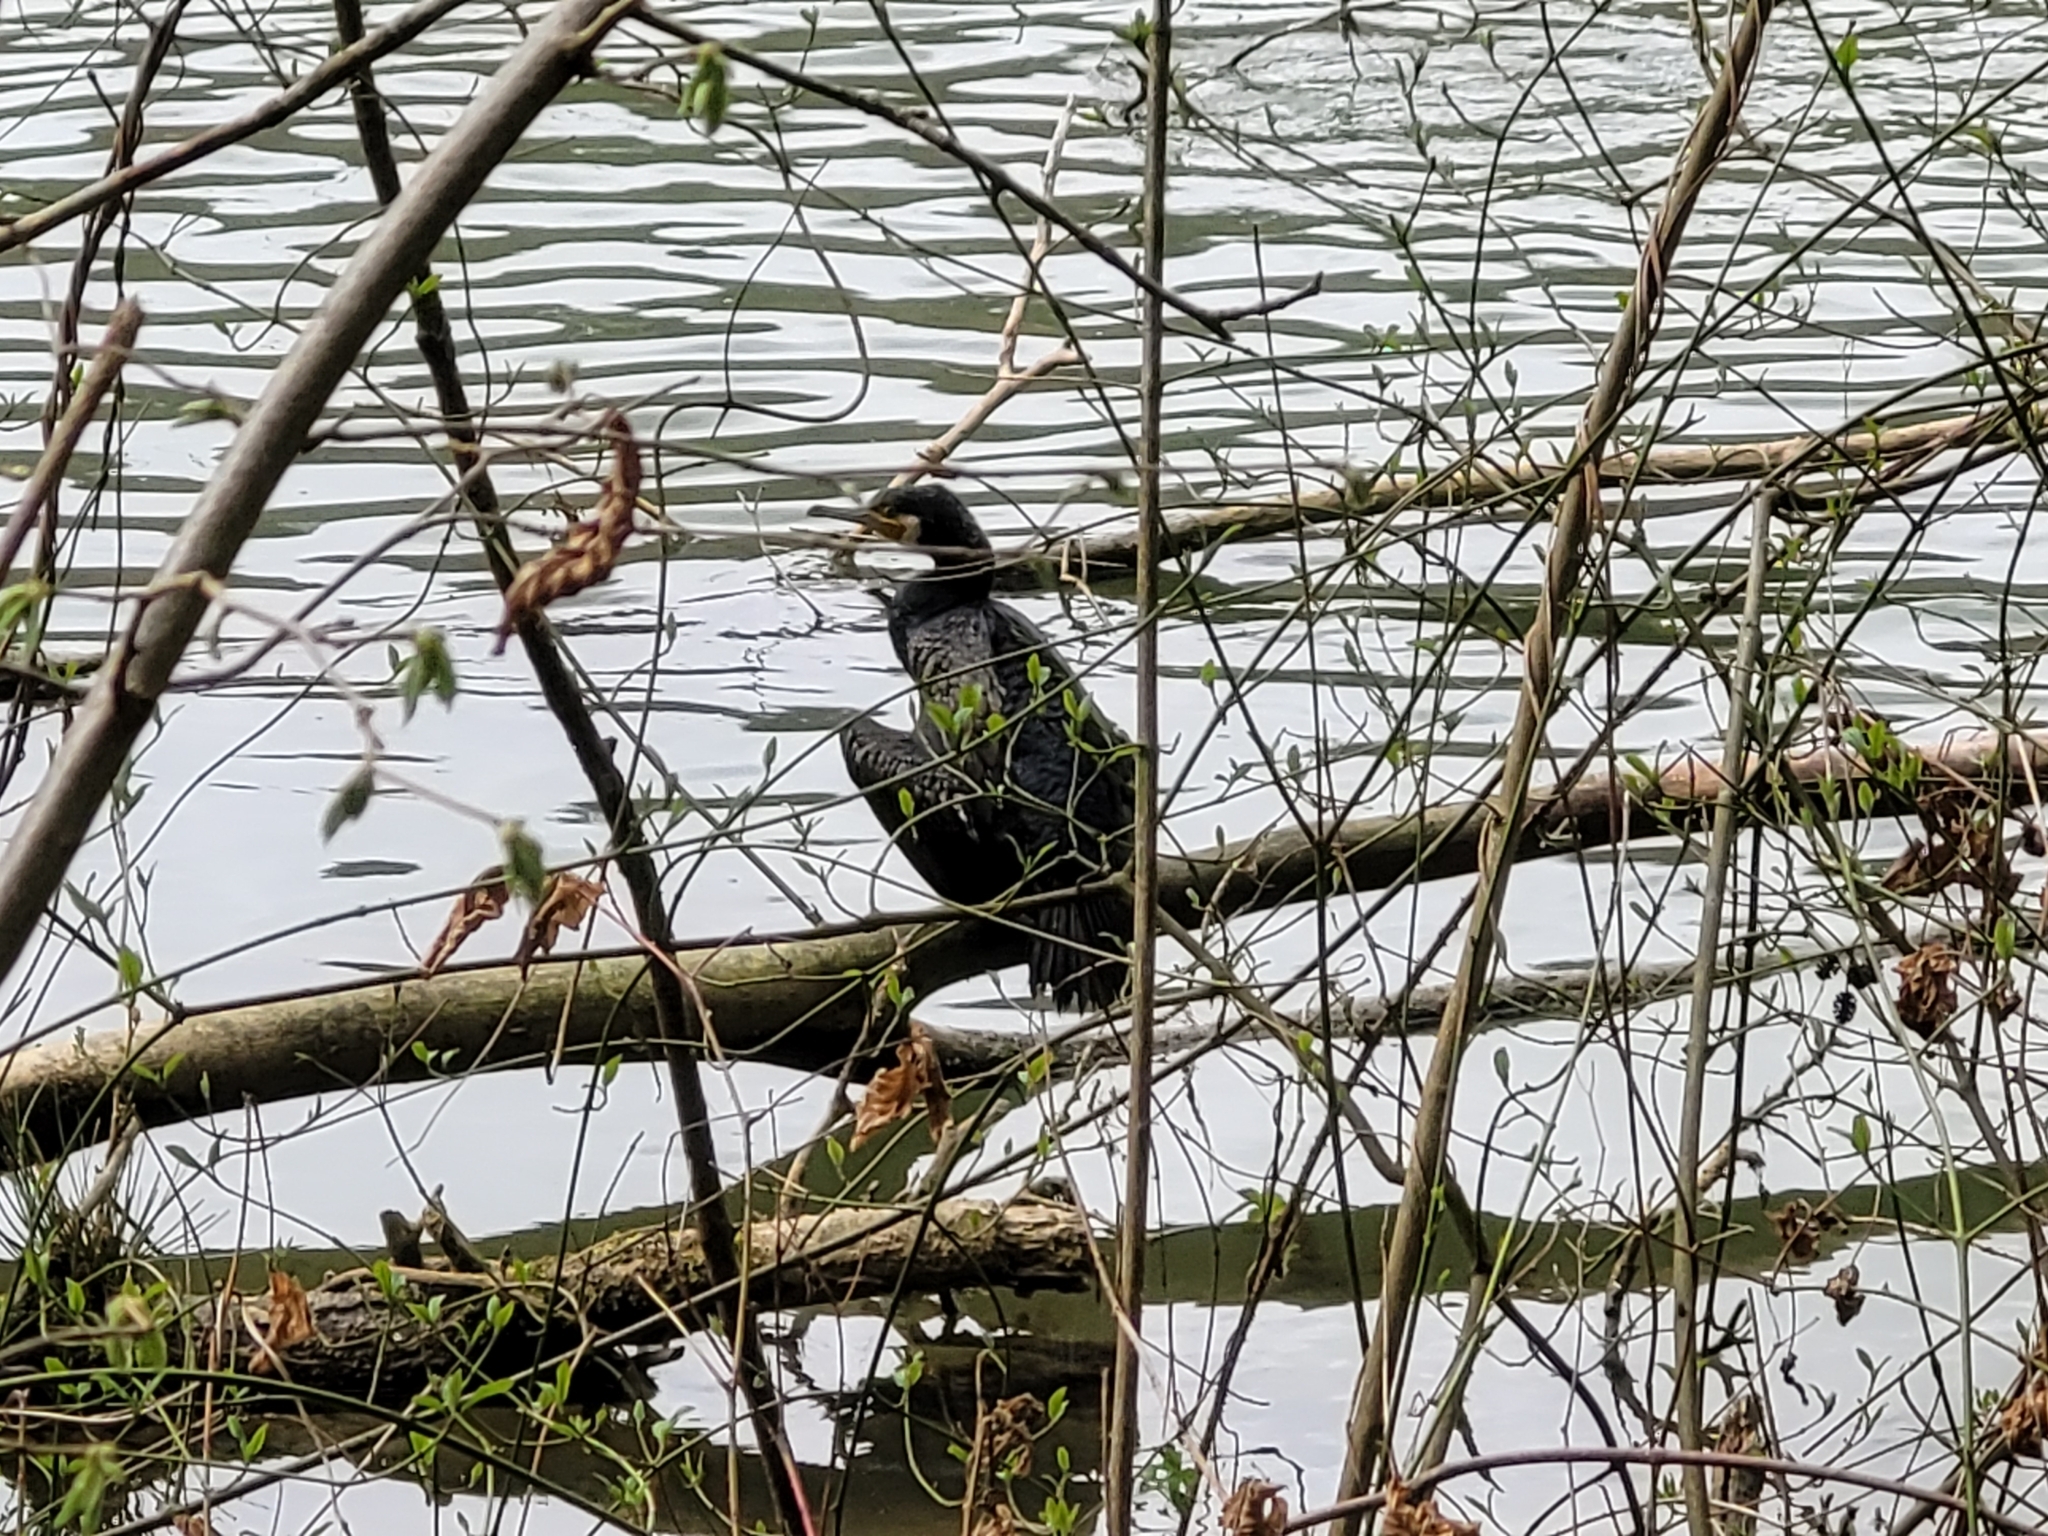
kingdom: Animalia
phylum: Chordata
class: Aves
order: Suliformes
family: Phalacrocoracidae
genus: Phalacrocorax
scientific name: Phalacrocorax carbo
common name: Great cormorant
